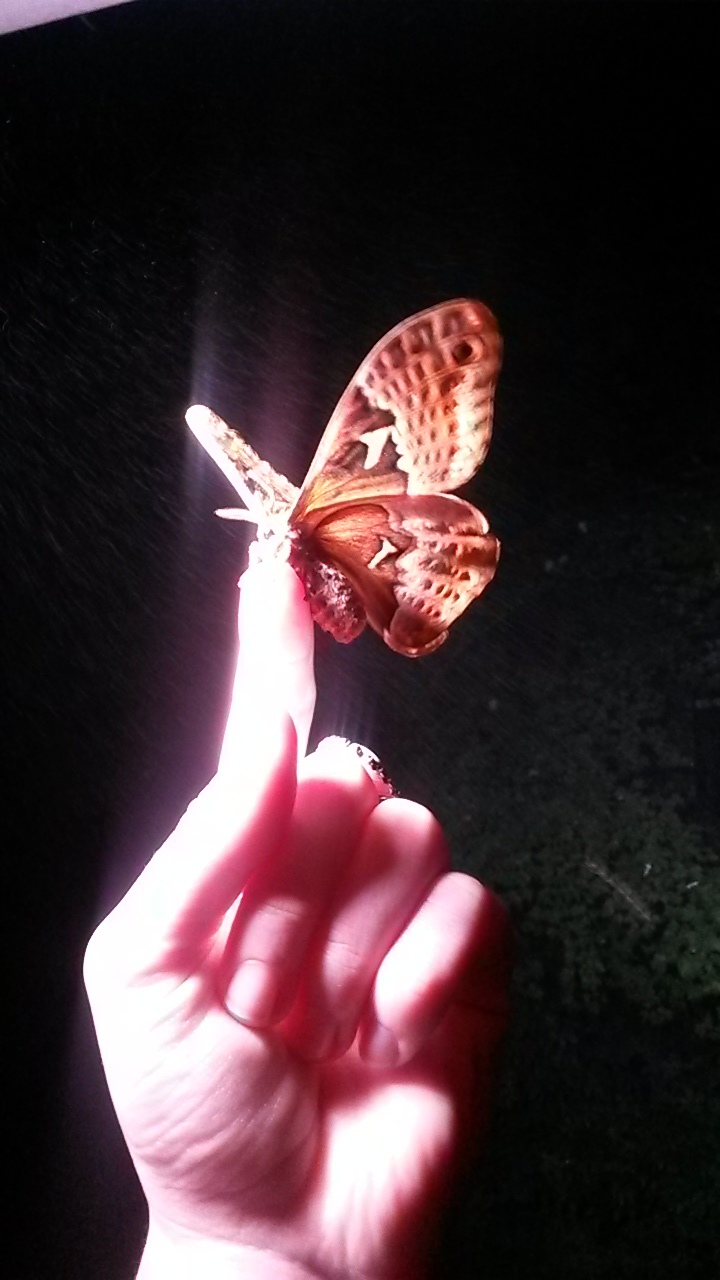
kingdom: Animalia
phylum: Arthropoda
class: Insecta
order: Lepidoptera
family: Saturniidae
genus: Callosamia
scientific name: Callosamia angulifera
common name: Tulip tree silkmoth
